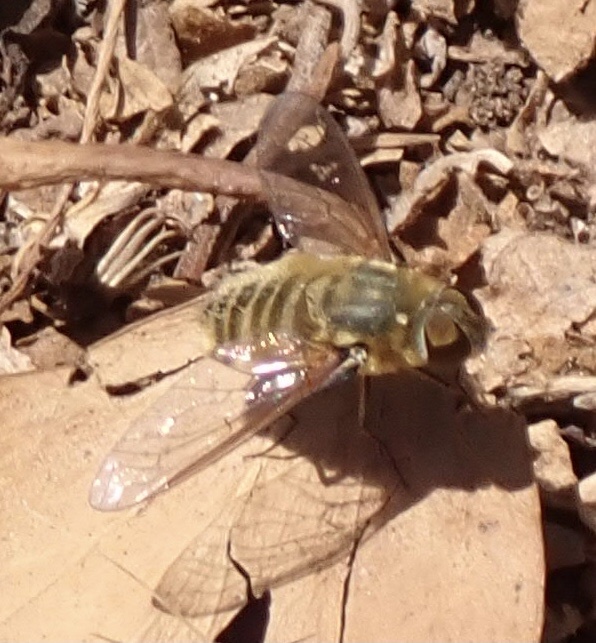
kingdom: Animalia
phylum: Arthropoda
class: Insecta
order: Diptera
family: Bombyliidae
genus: Villa
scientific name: Villa hottentotta
